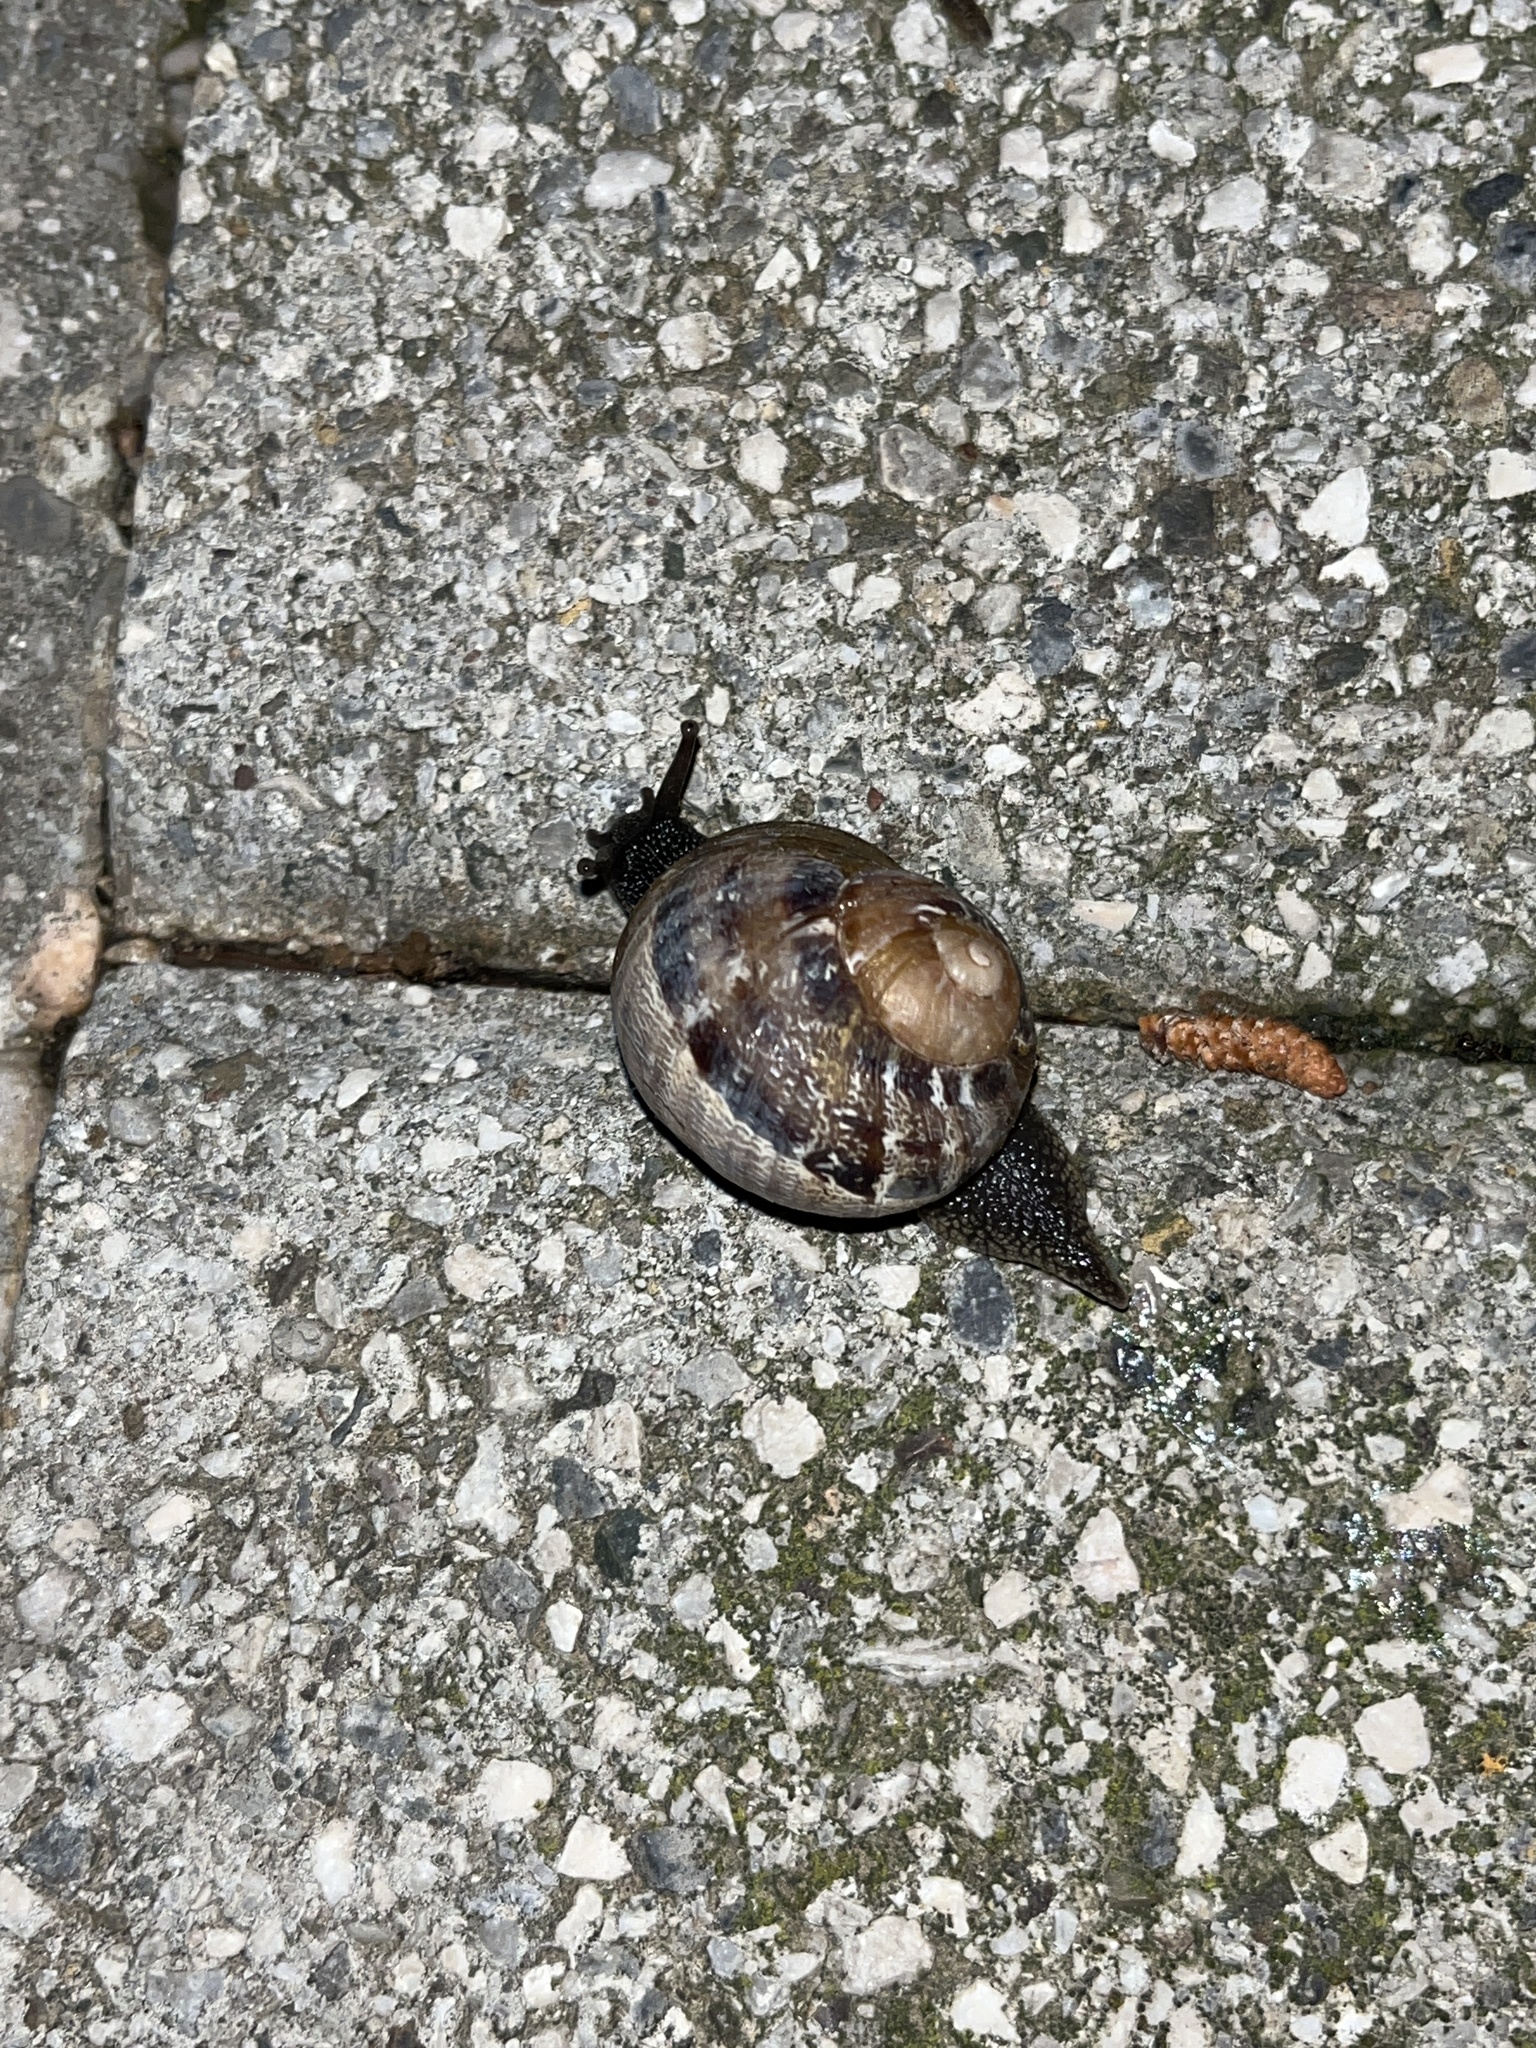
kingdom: Animalia
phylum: Mollusca
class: Gastropoda
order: Stylommatophora
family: Helicidae
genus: Cornu
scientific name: Cornu aspersum
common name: Brown garden snail
